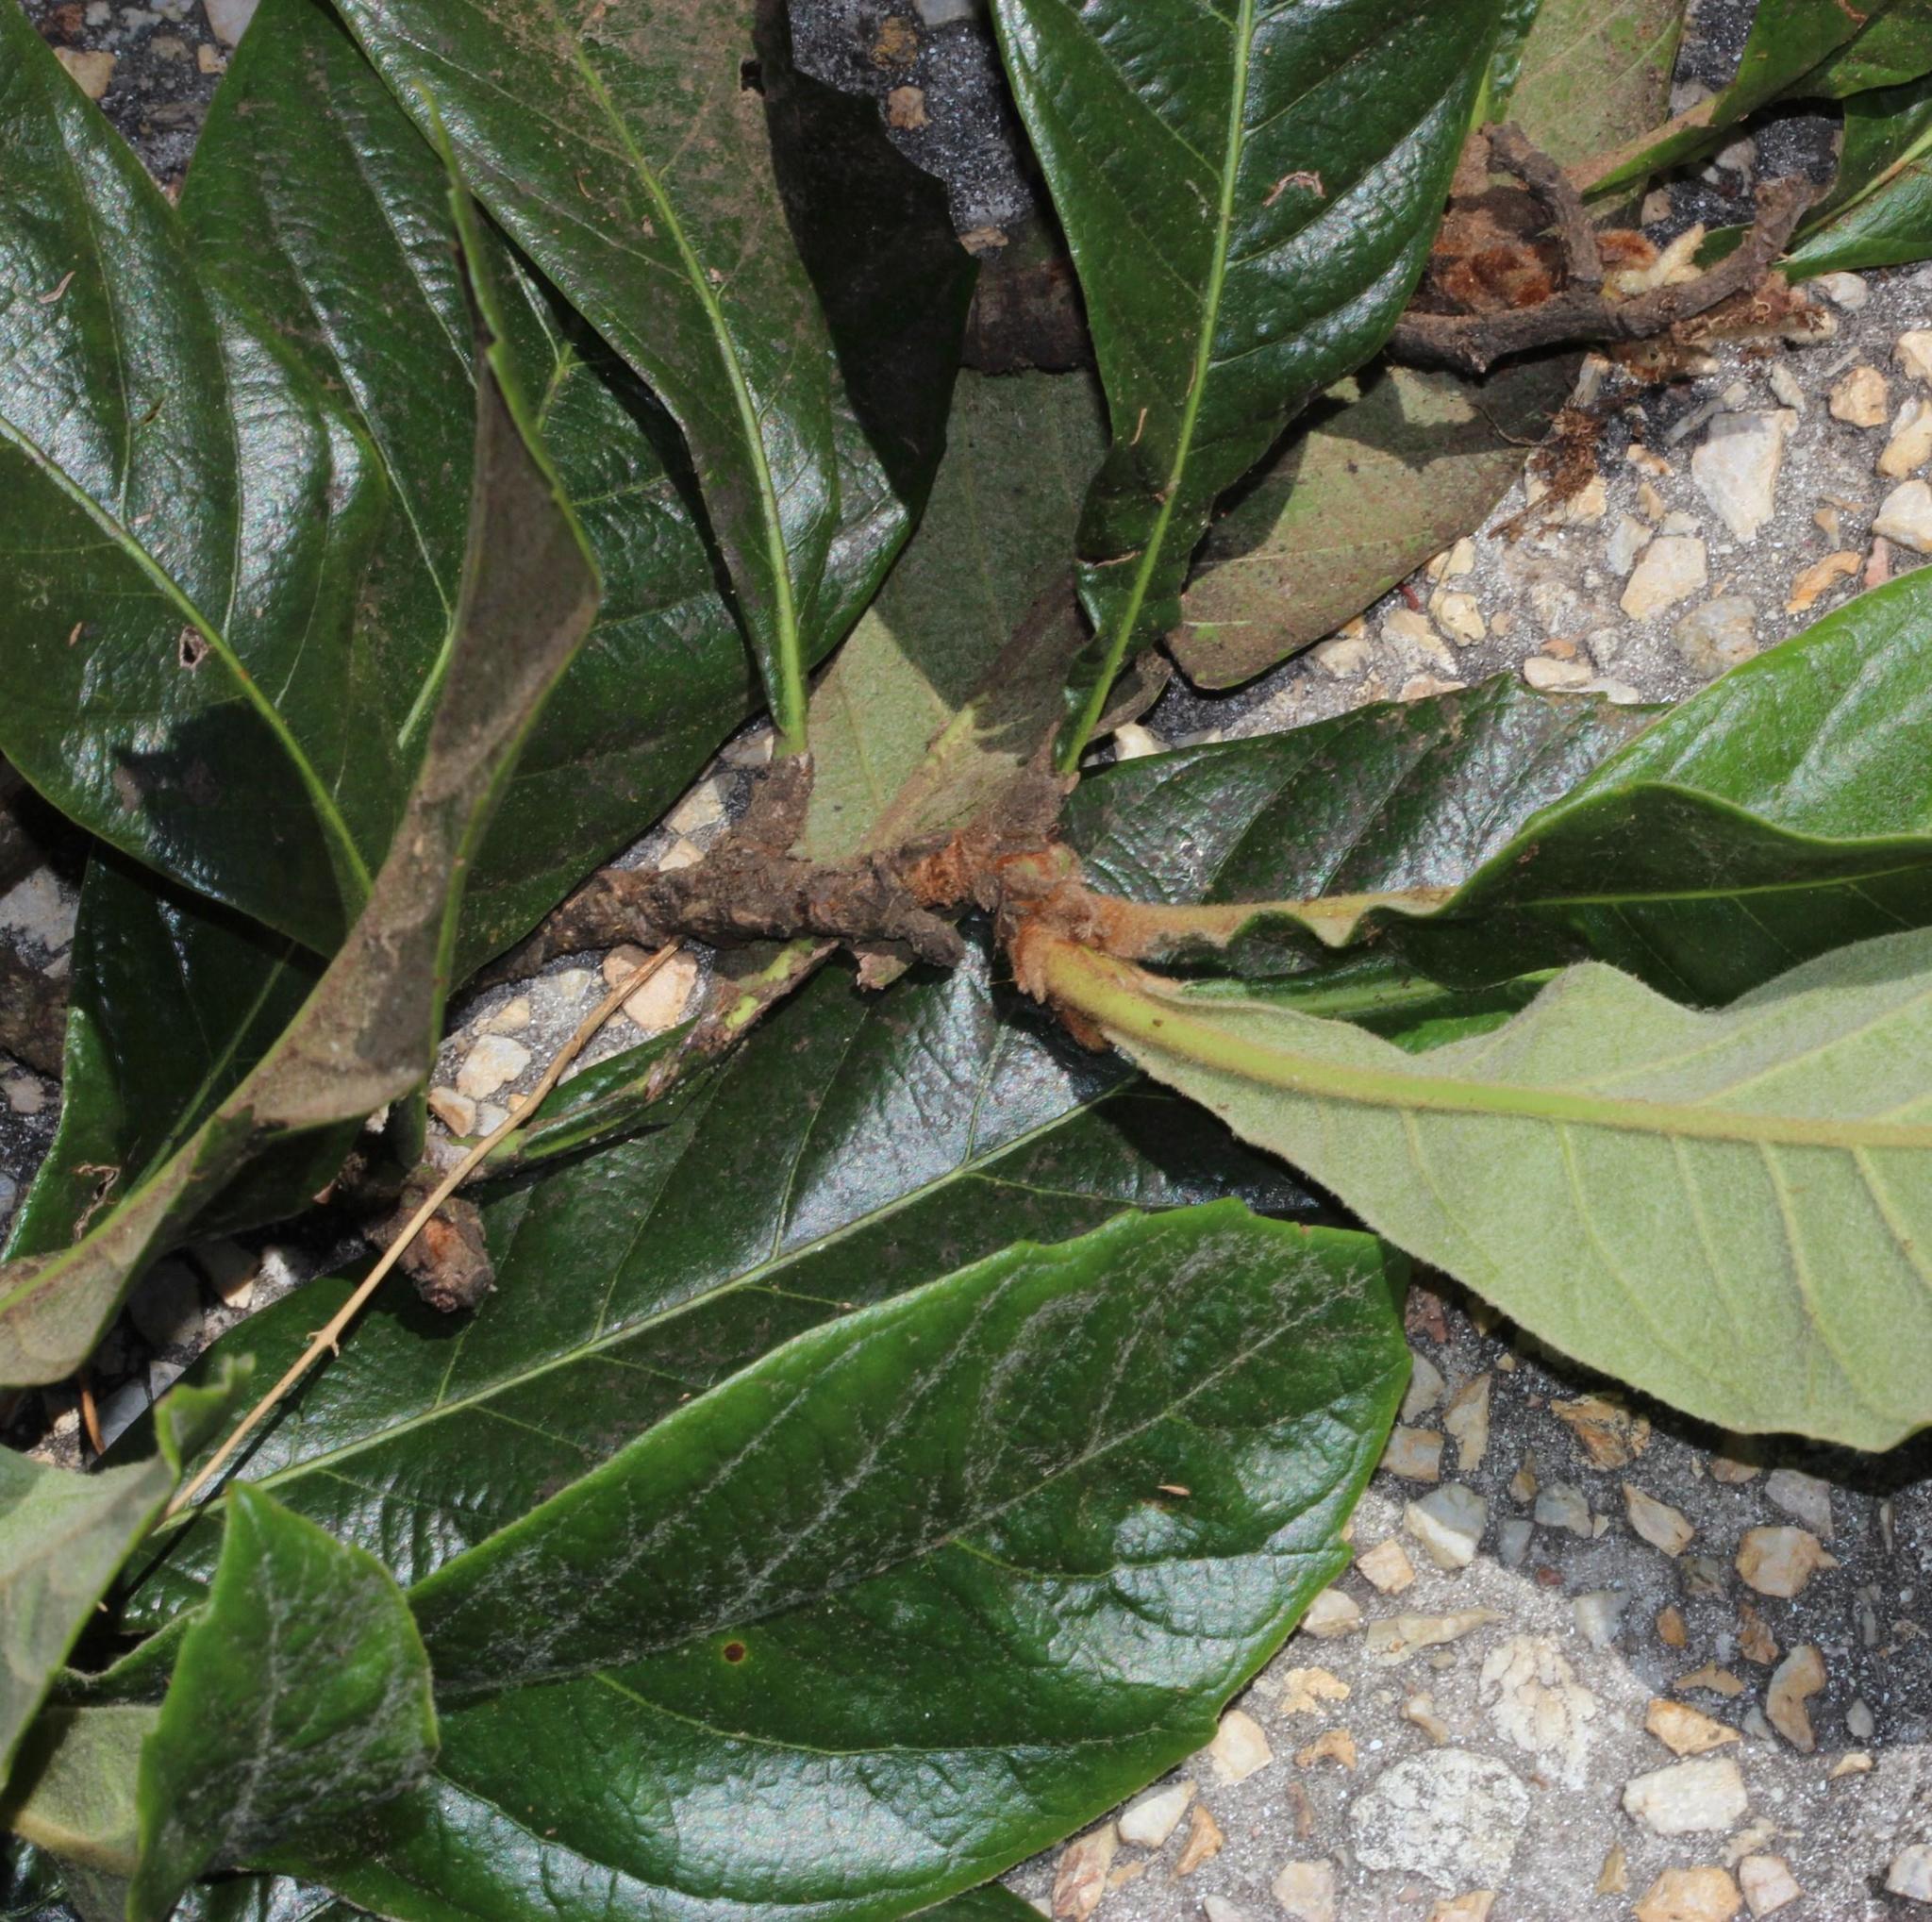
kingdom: Plantae
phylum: Tracheophyta
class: Magnoliopsida
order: Rosales
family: Rosaceae
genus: Rhaphiolepis
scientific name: Rhaphiolepis bibas
